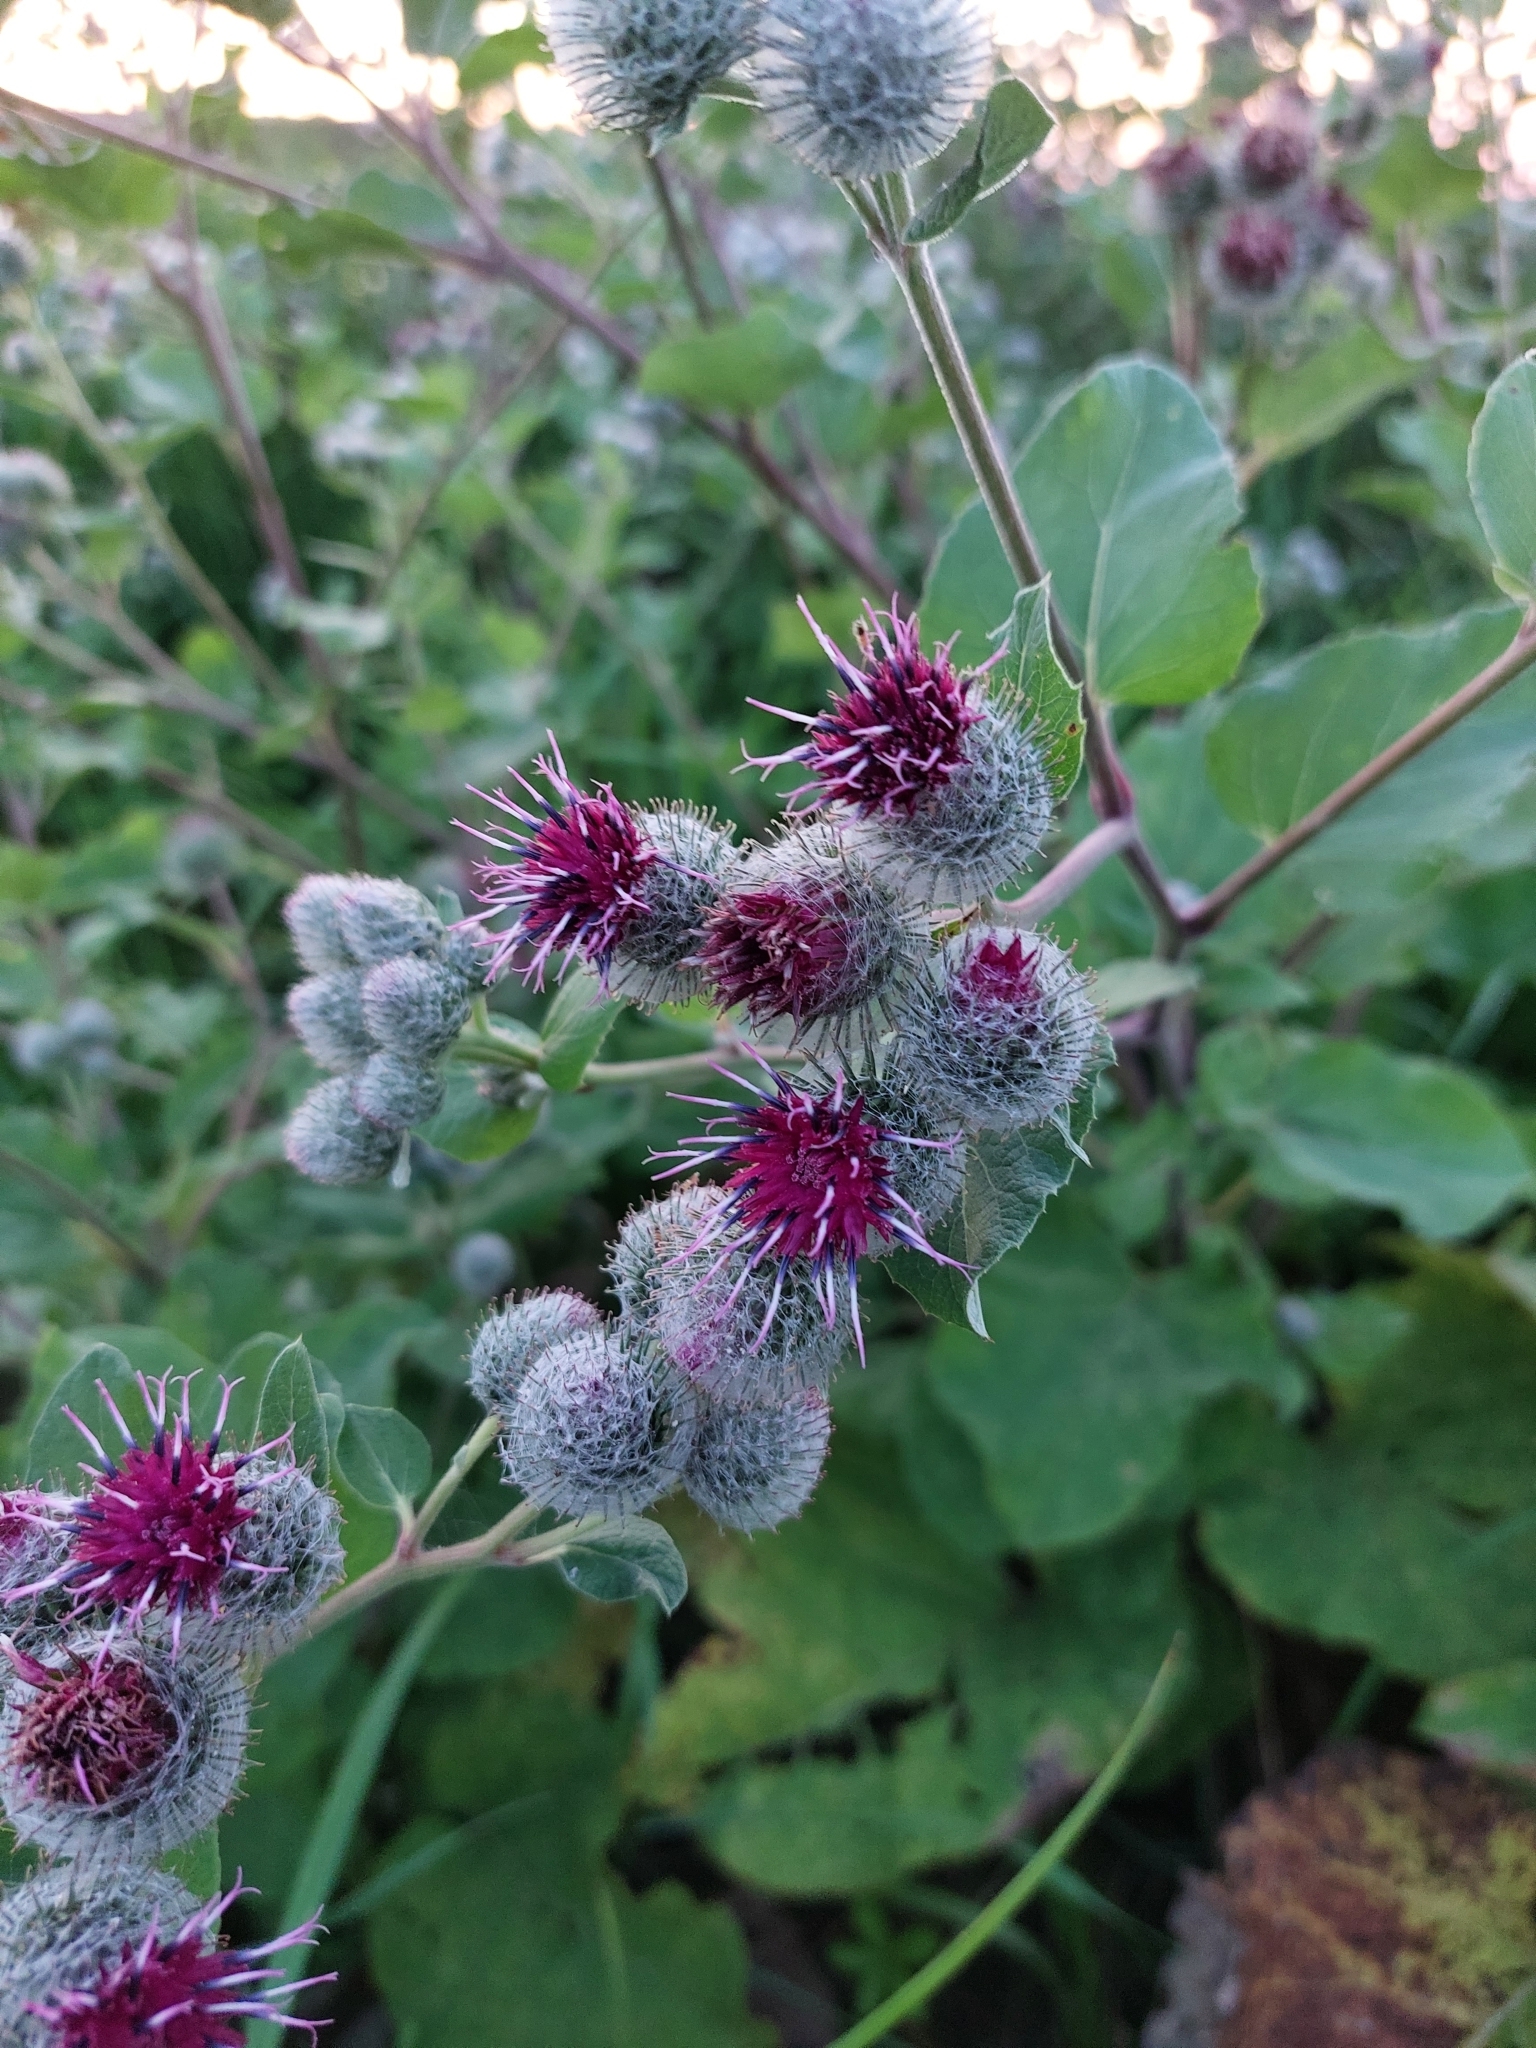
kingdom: Plantae
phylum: Tracheophyta
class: Magnoliopsida
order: Asterales
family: Asteraceae
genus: Arctium
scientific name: Arctium tomentosum
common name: Woolly burdock
